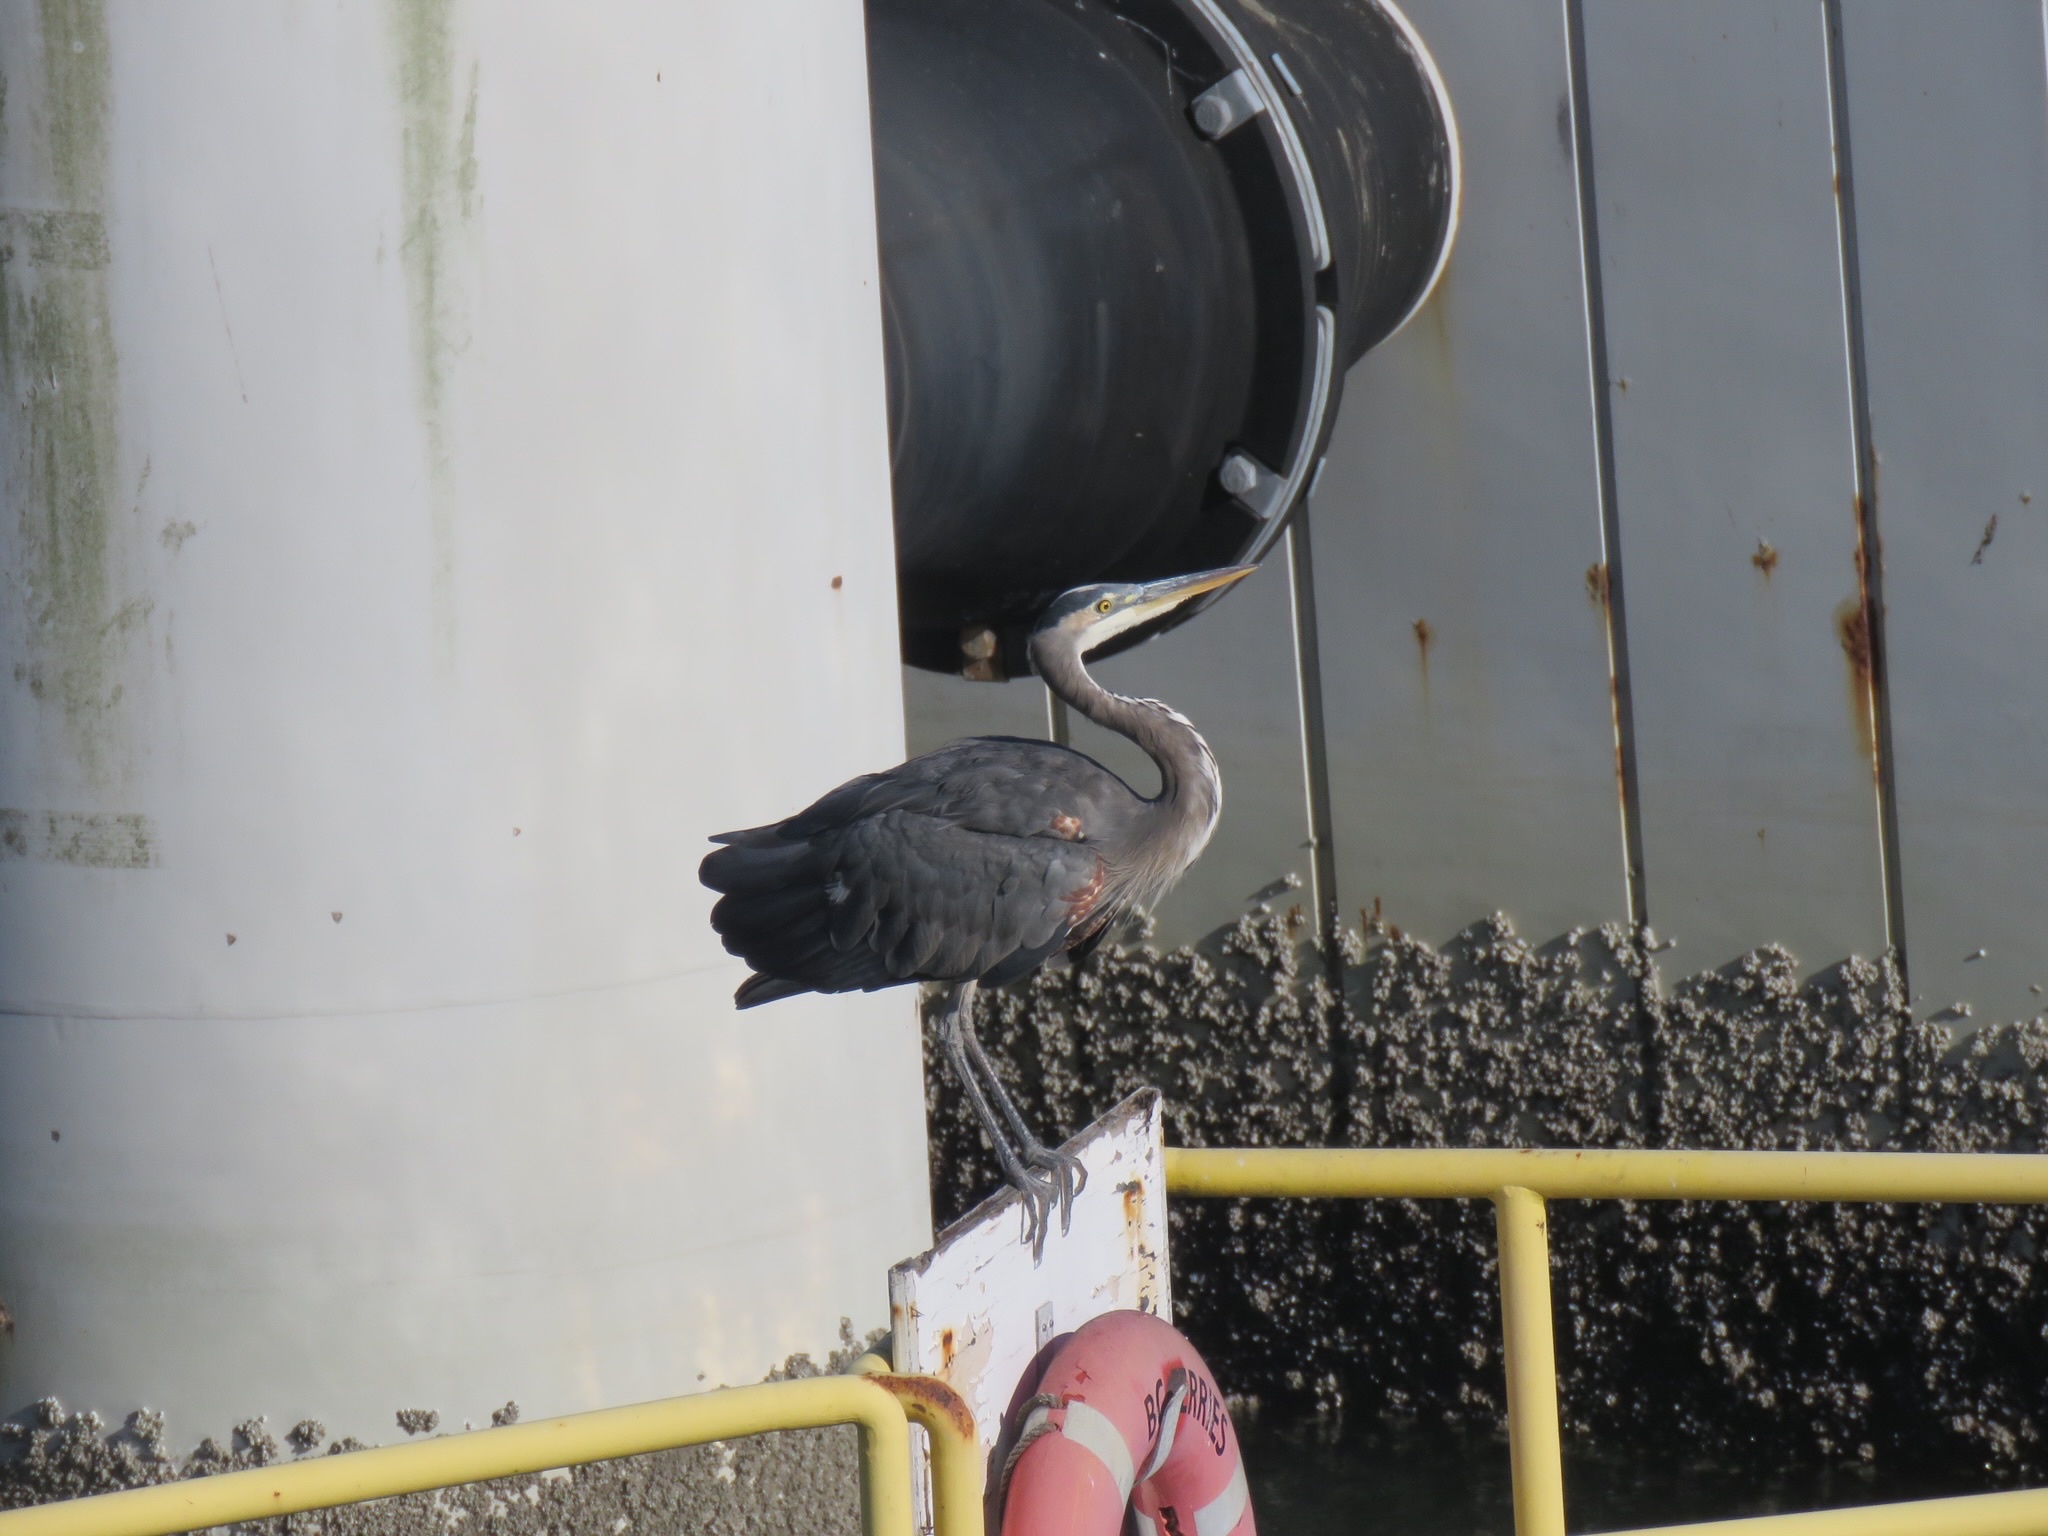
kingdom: Animalia
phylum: Chordata
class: Aves
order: Pelecaniformes
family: Ardeidae
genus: Ardea
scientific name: Ardea herodias
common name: Great blue heron
